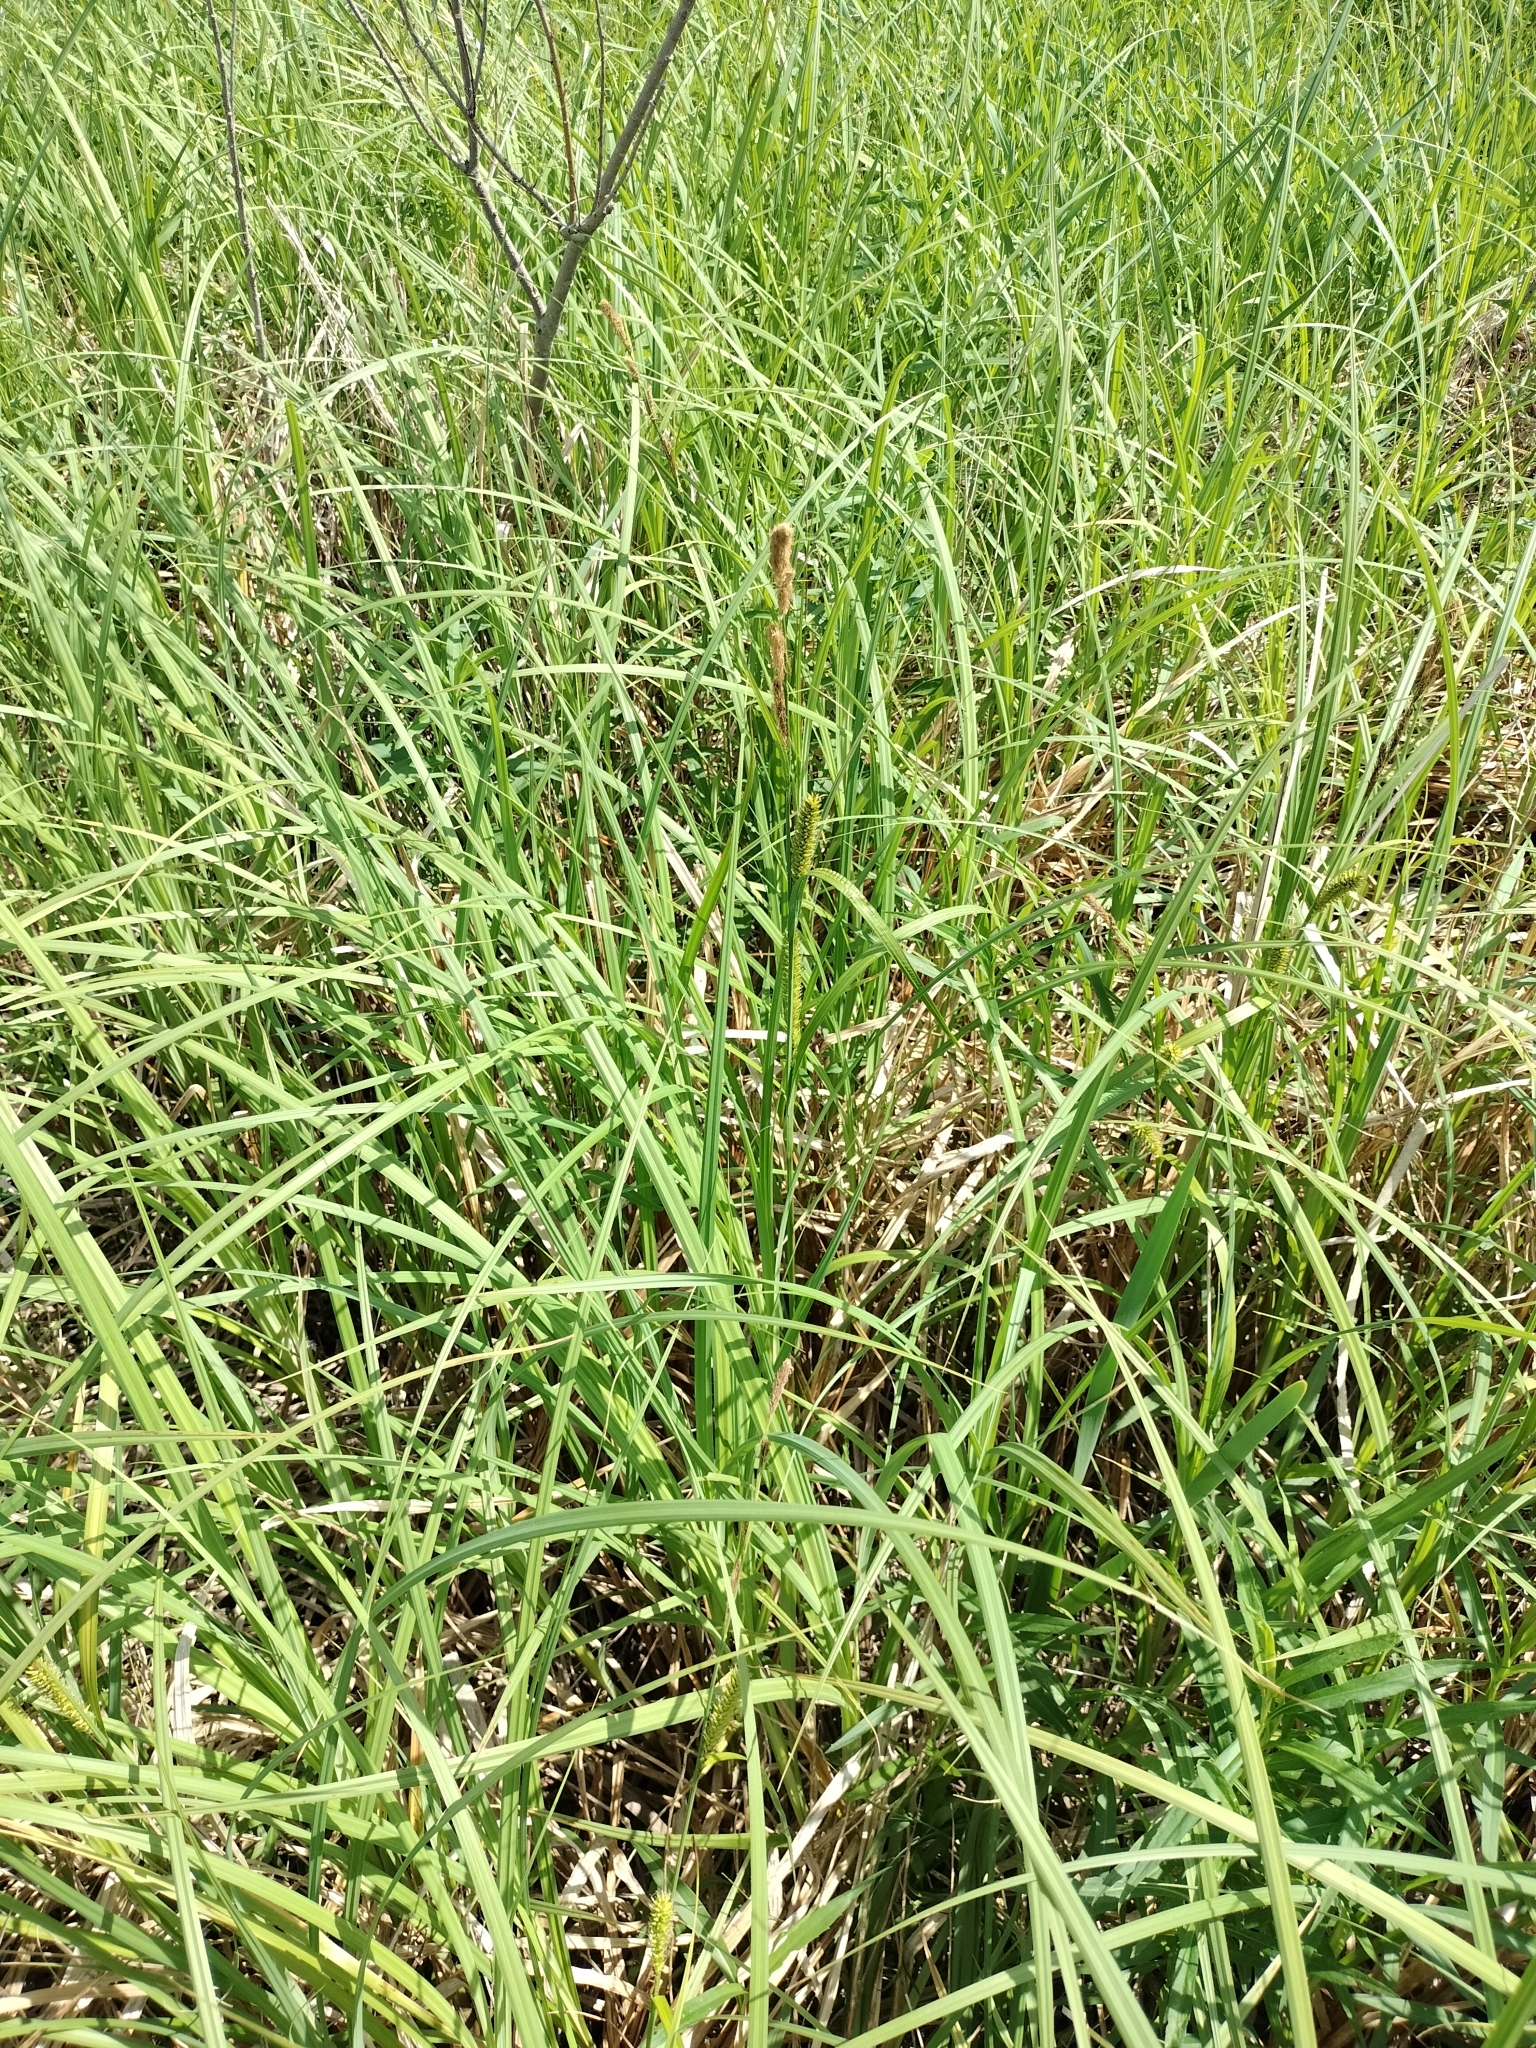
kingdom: Plantae
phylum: Tracheophyta
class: Liliopsida
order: Poales
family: Cyperaceae
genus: Carex
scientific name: Carex lacustris
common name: Common lake sedge
